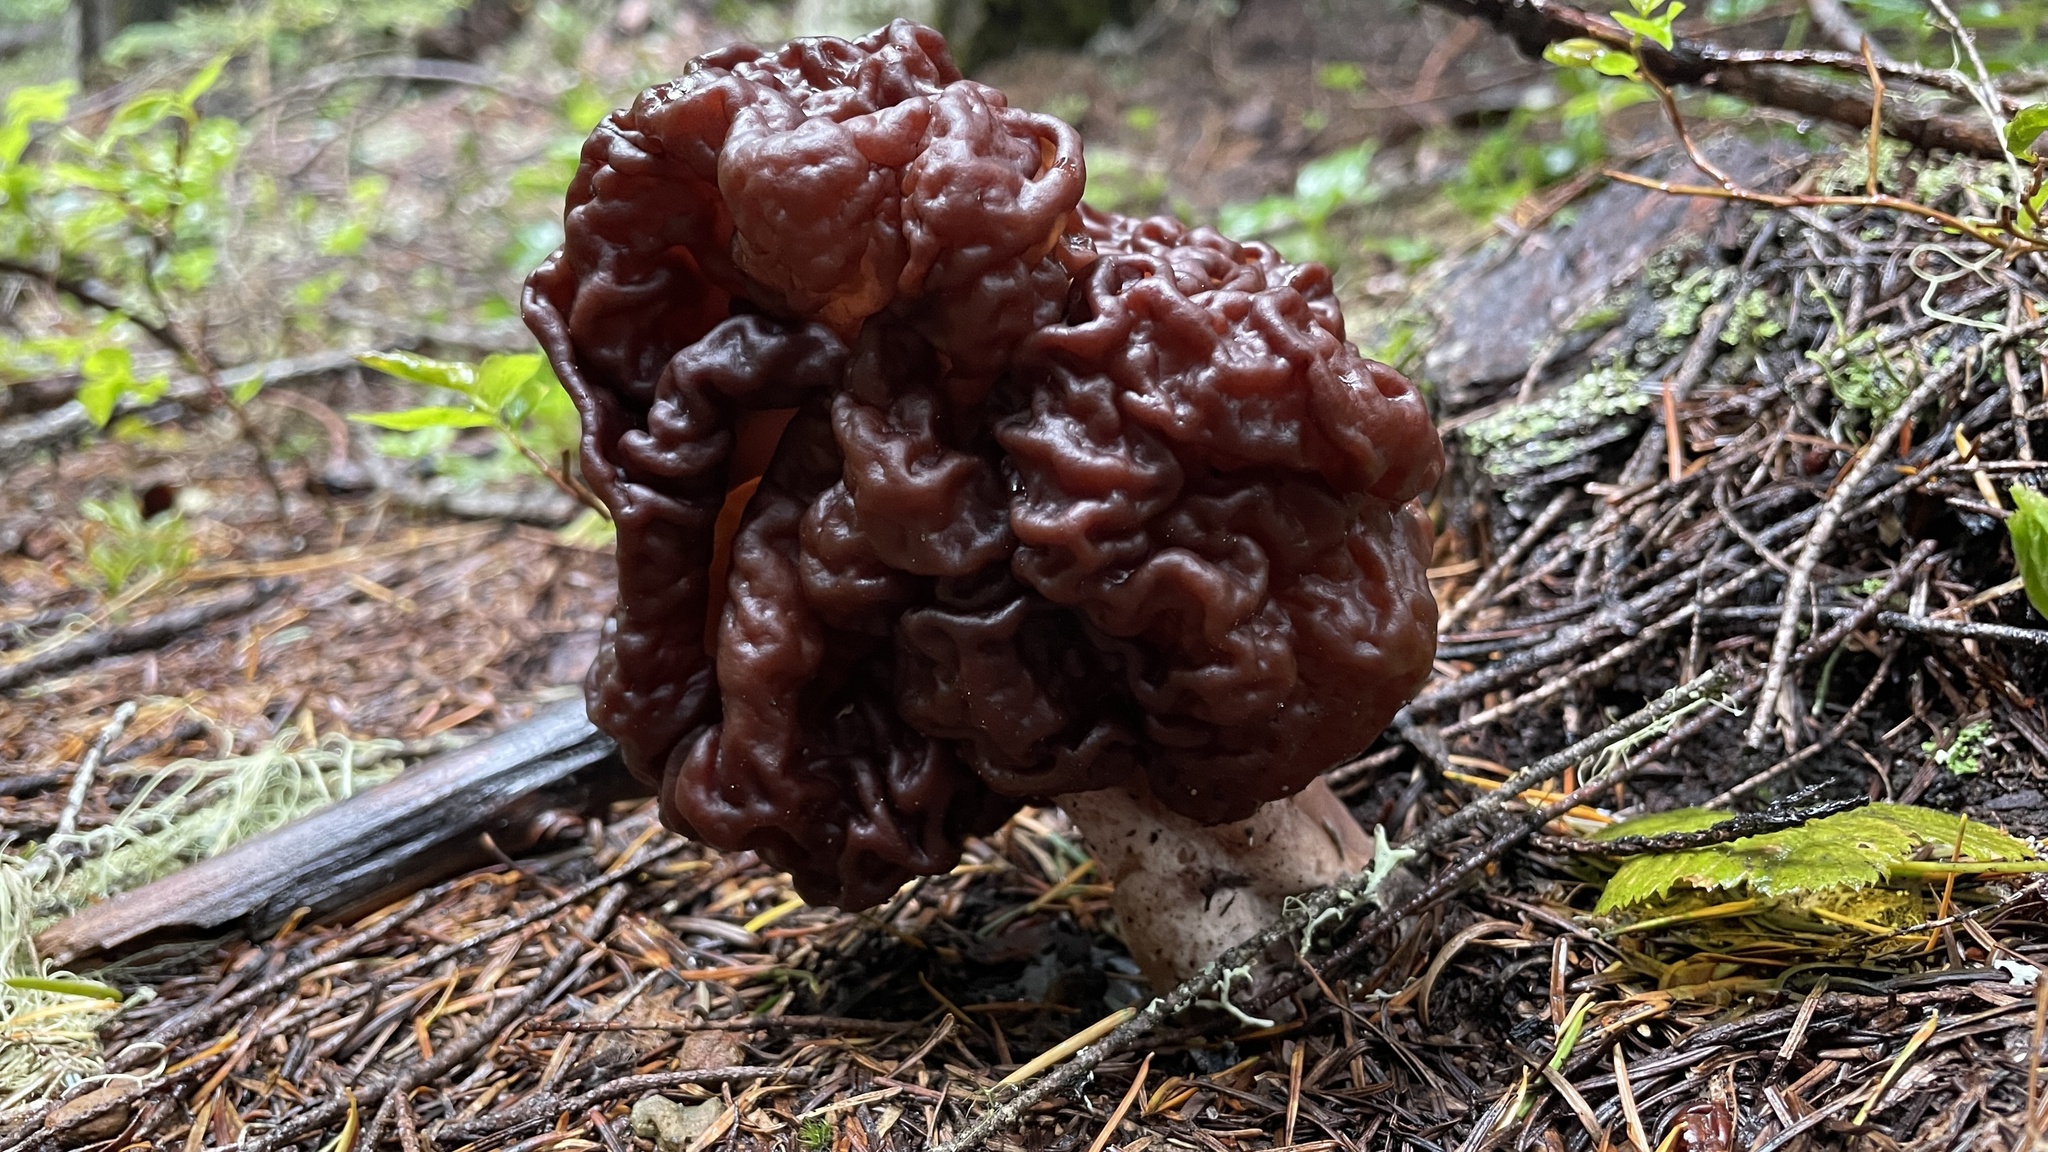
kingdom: Fungi
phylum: Ascomycota
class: Pezizomycetes
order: Pezizales
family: Discinaceae
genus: Gyromitra
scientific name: Gyromitra esculenta
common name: False morel
